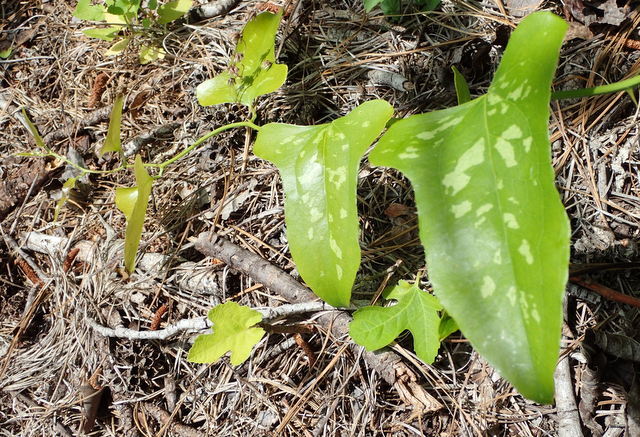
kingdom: Plantae
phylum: Tracheophyta
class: Liliopsida
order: Liliales
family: Smilacaceae
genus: Smilax
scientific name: Smilax bona-nox
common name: Catbrier
